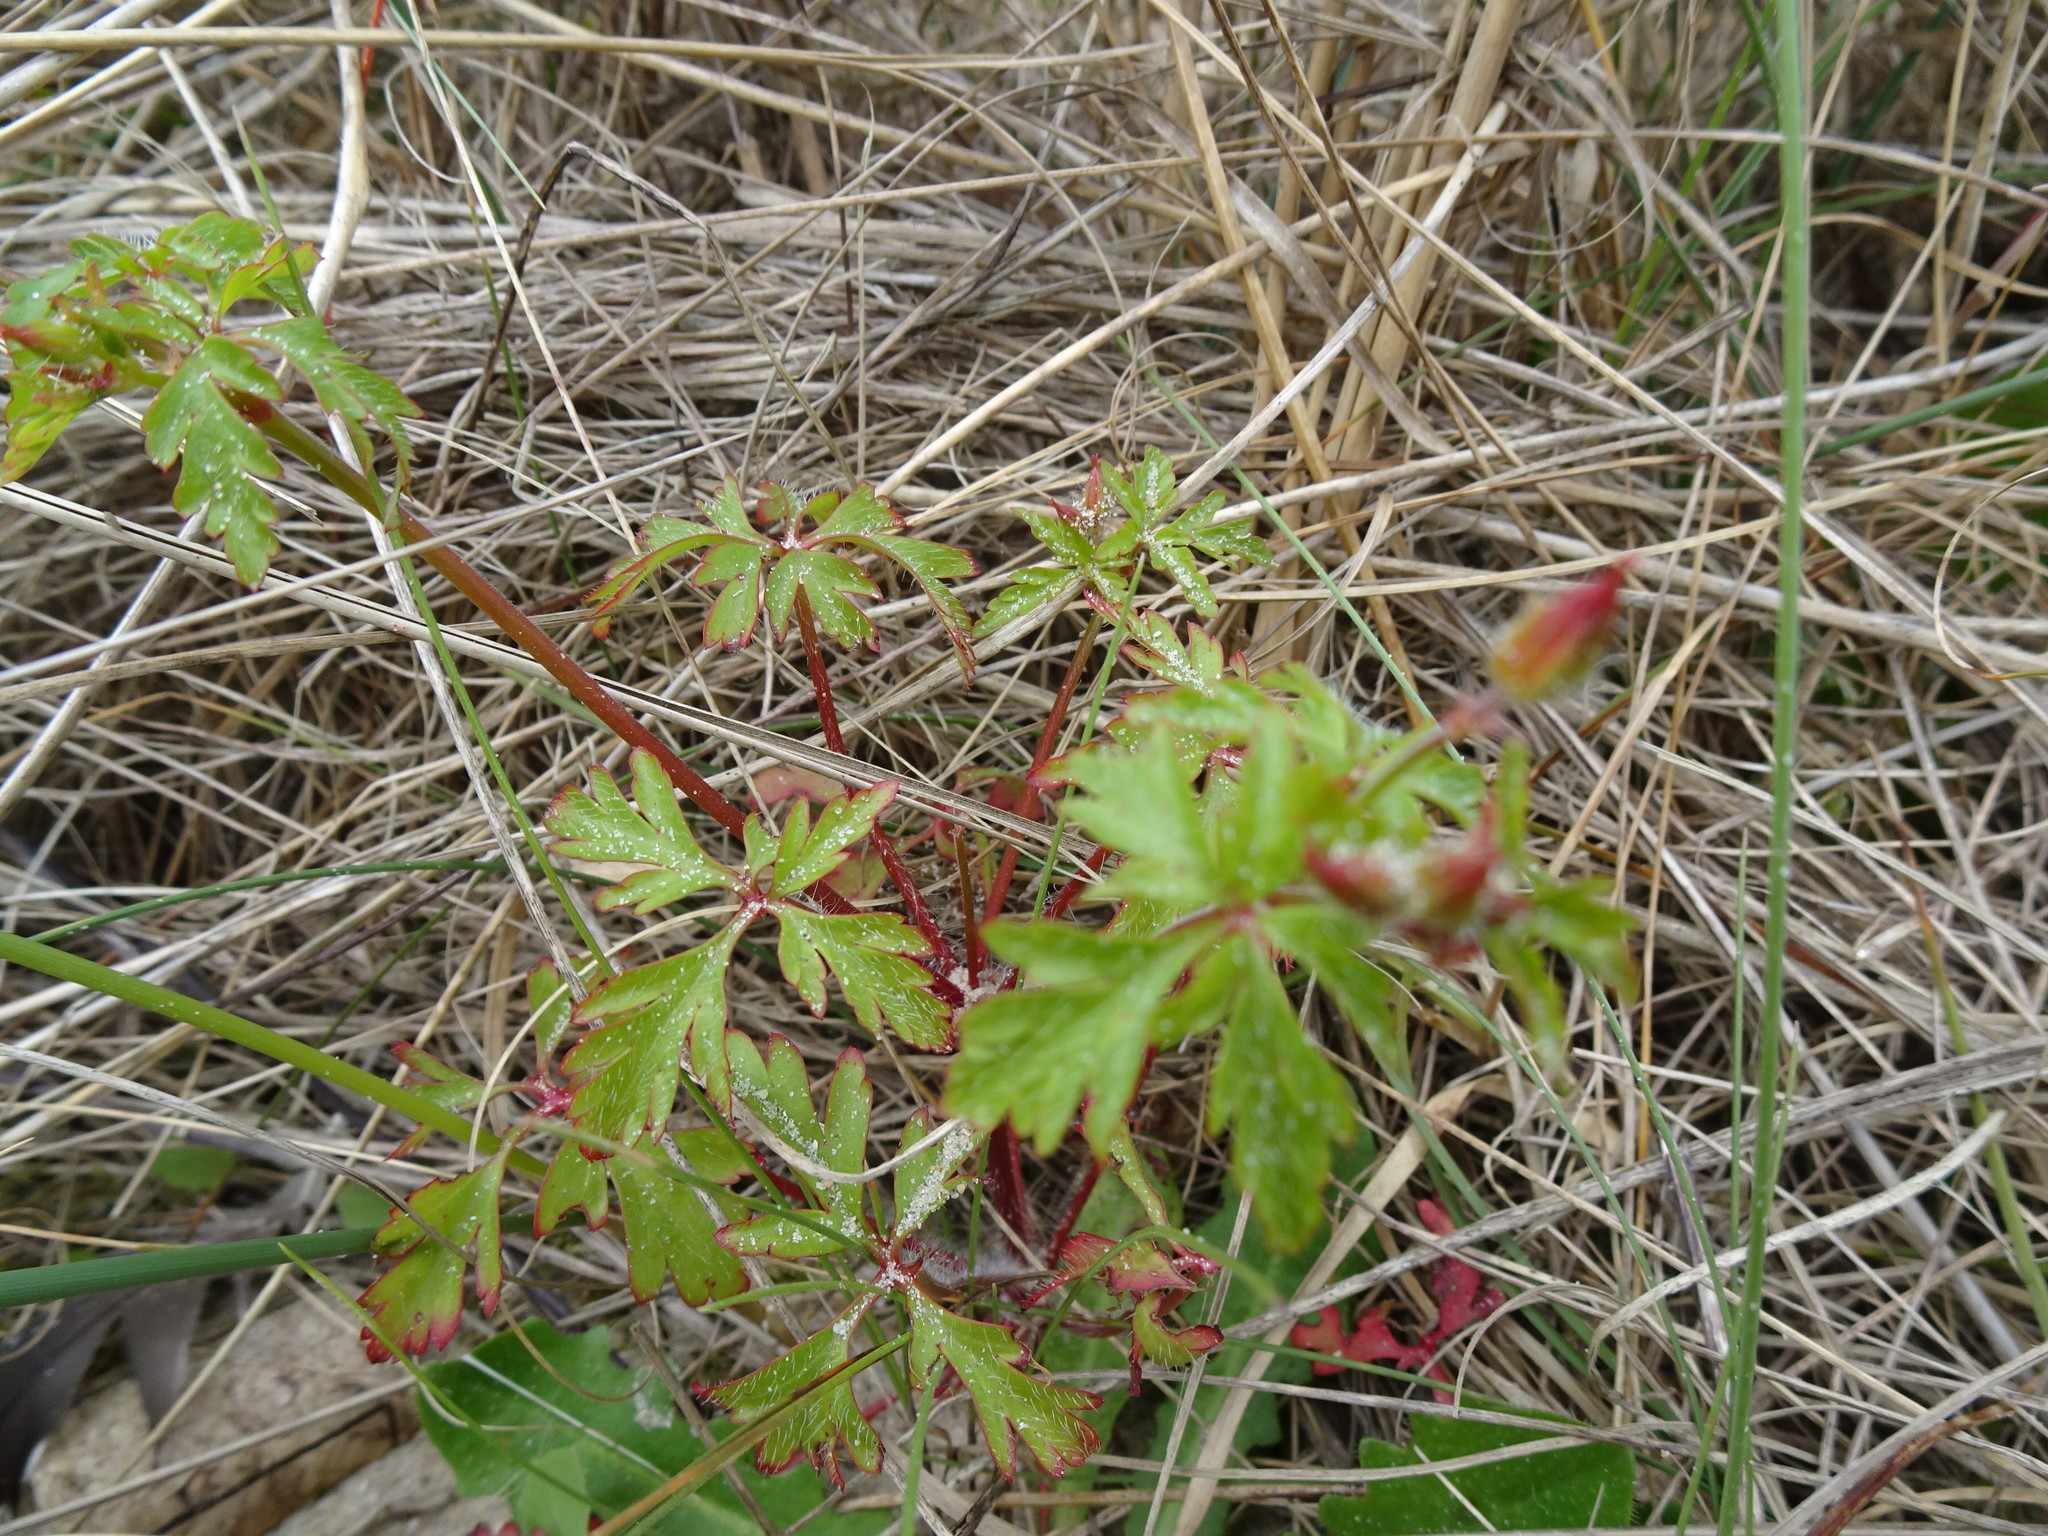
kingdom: Plantae
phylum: Tracheophyta
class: Magnoliopsida
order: Geraniales
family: Geraniaceae
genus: Geranium
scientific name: Geranium robertianum
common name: Herb-robert
